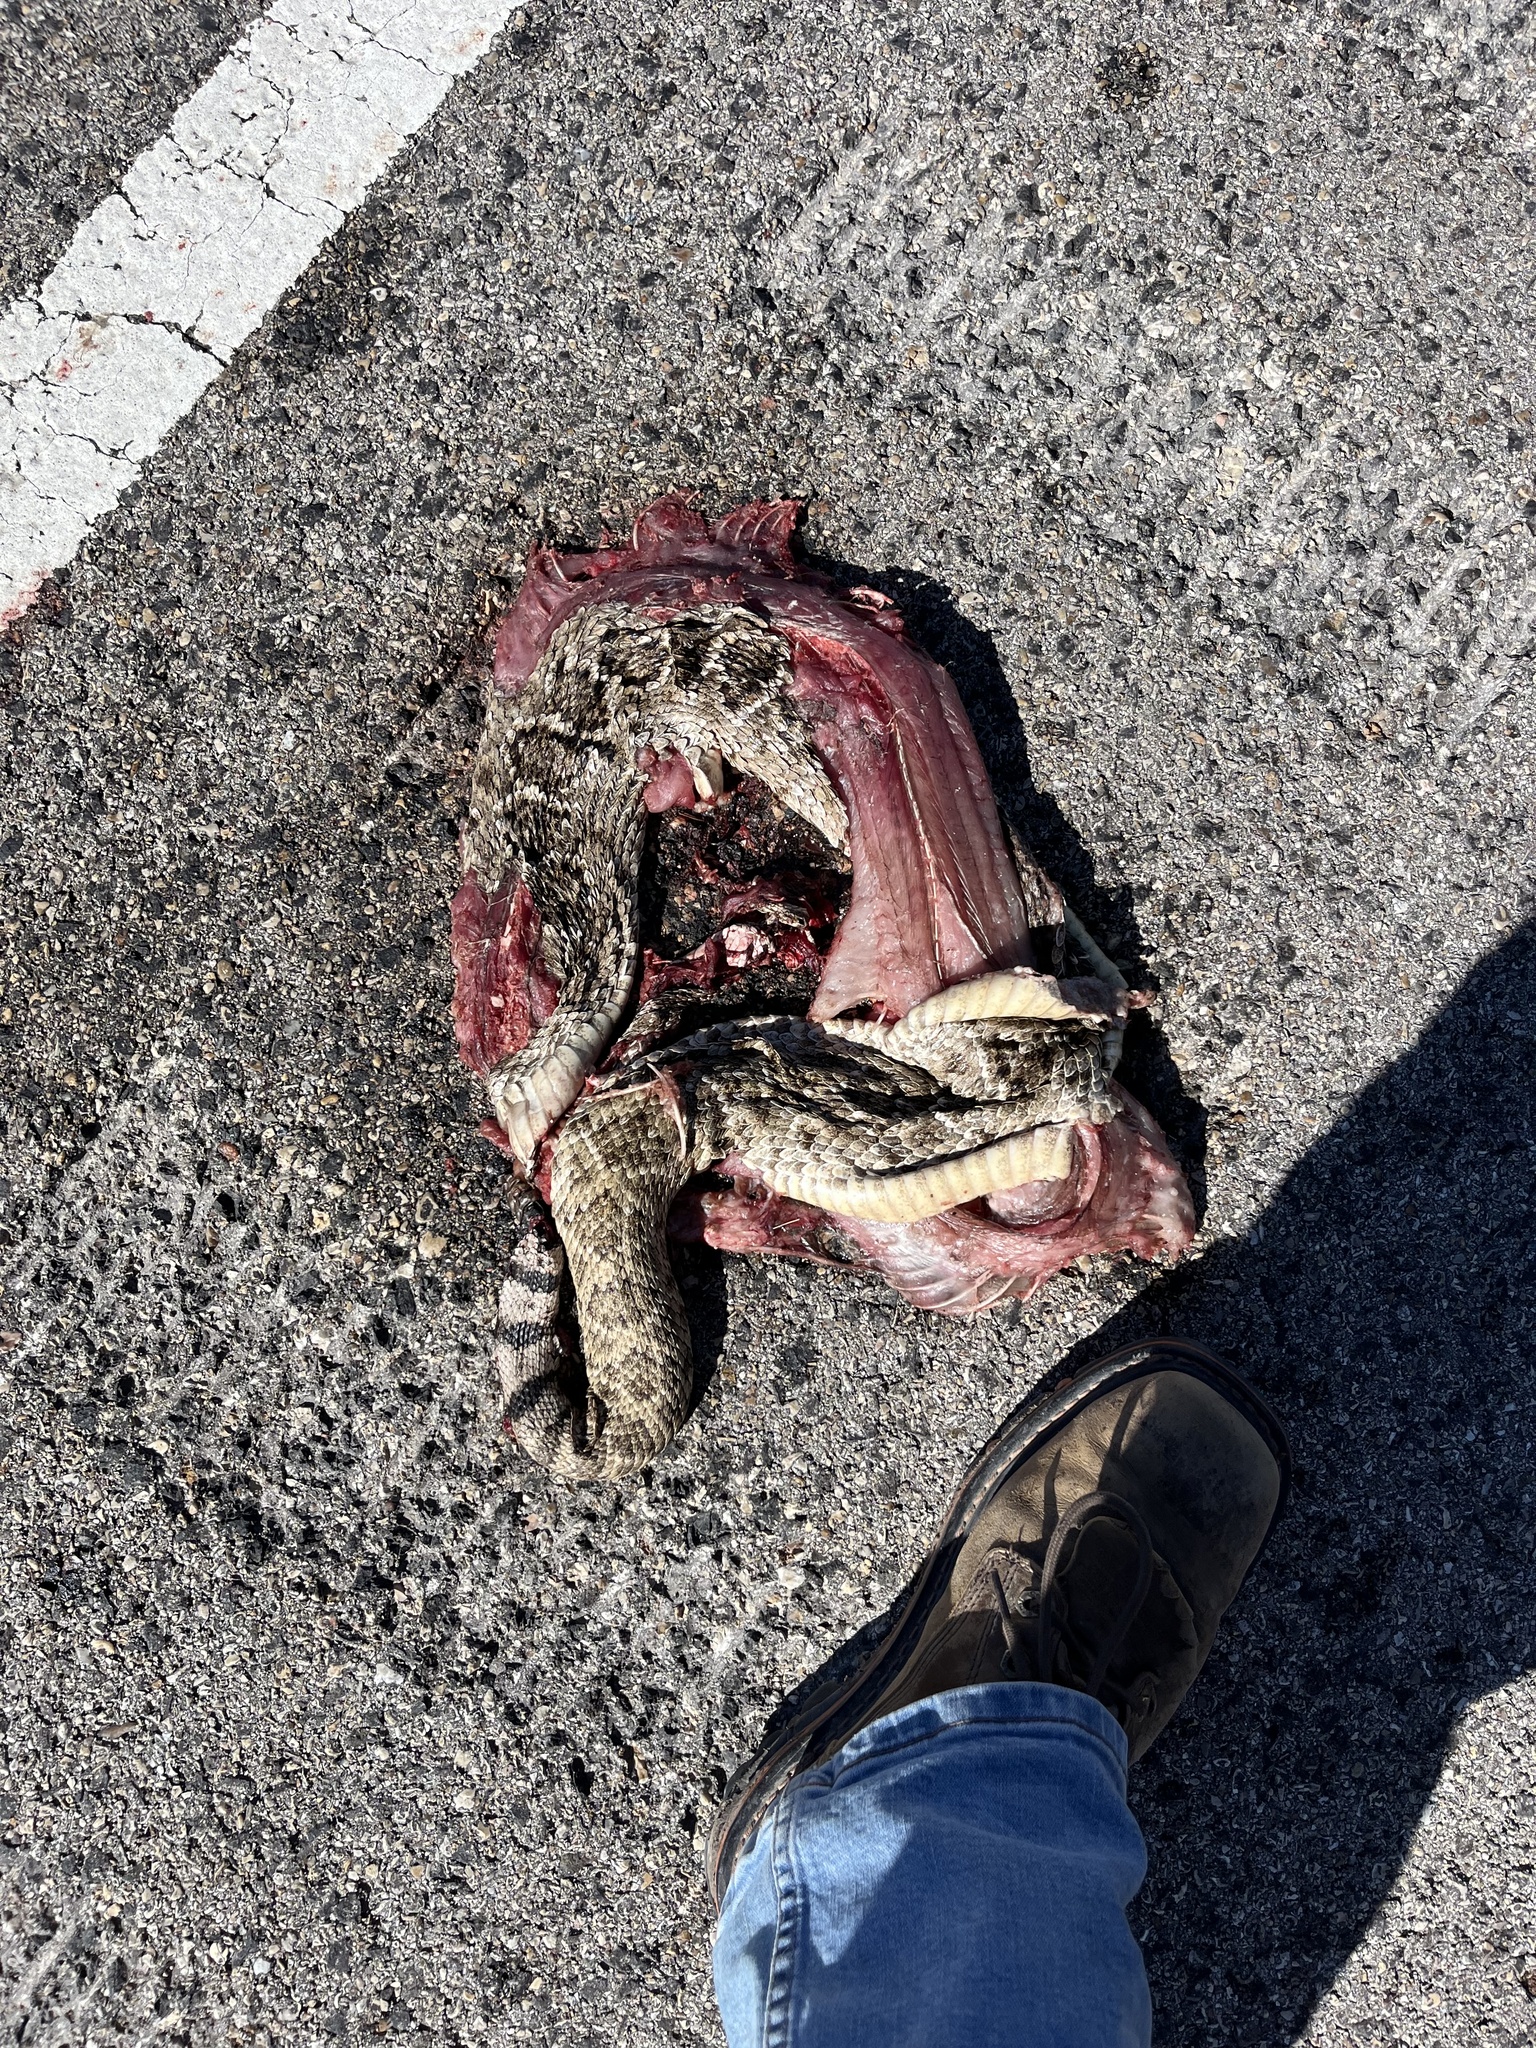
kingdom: Animalia
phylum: Chordata
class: Squamata
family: Viperidae
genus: Crotalus
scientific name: Crotalus atrox
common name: Western diamond-backed rattlesnake
